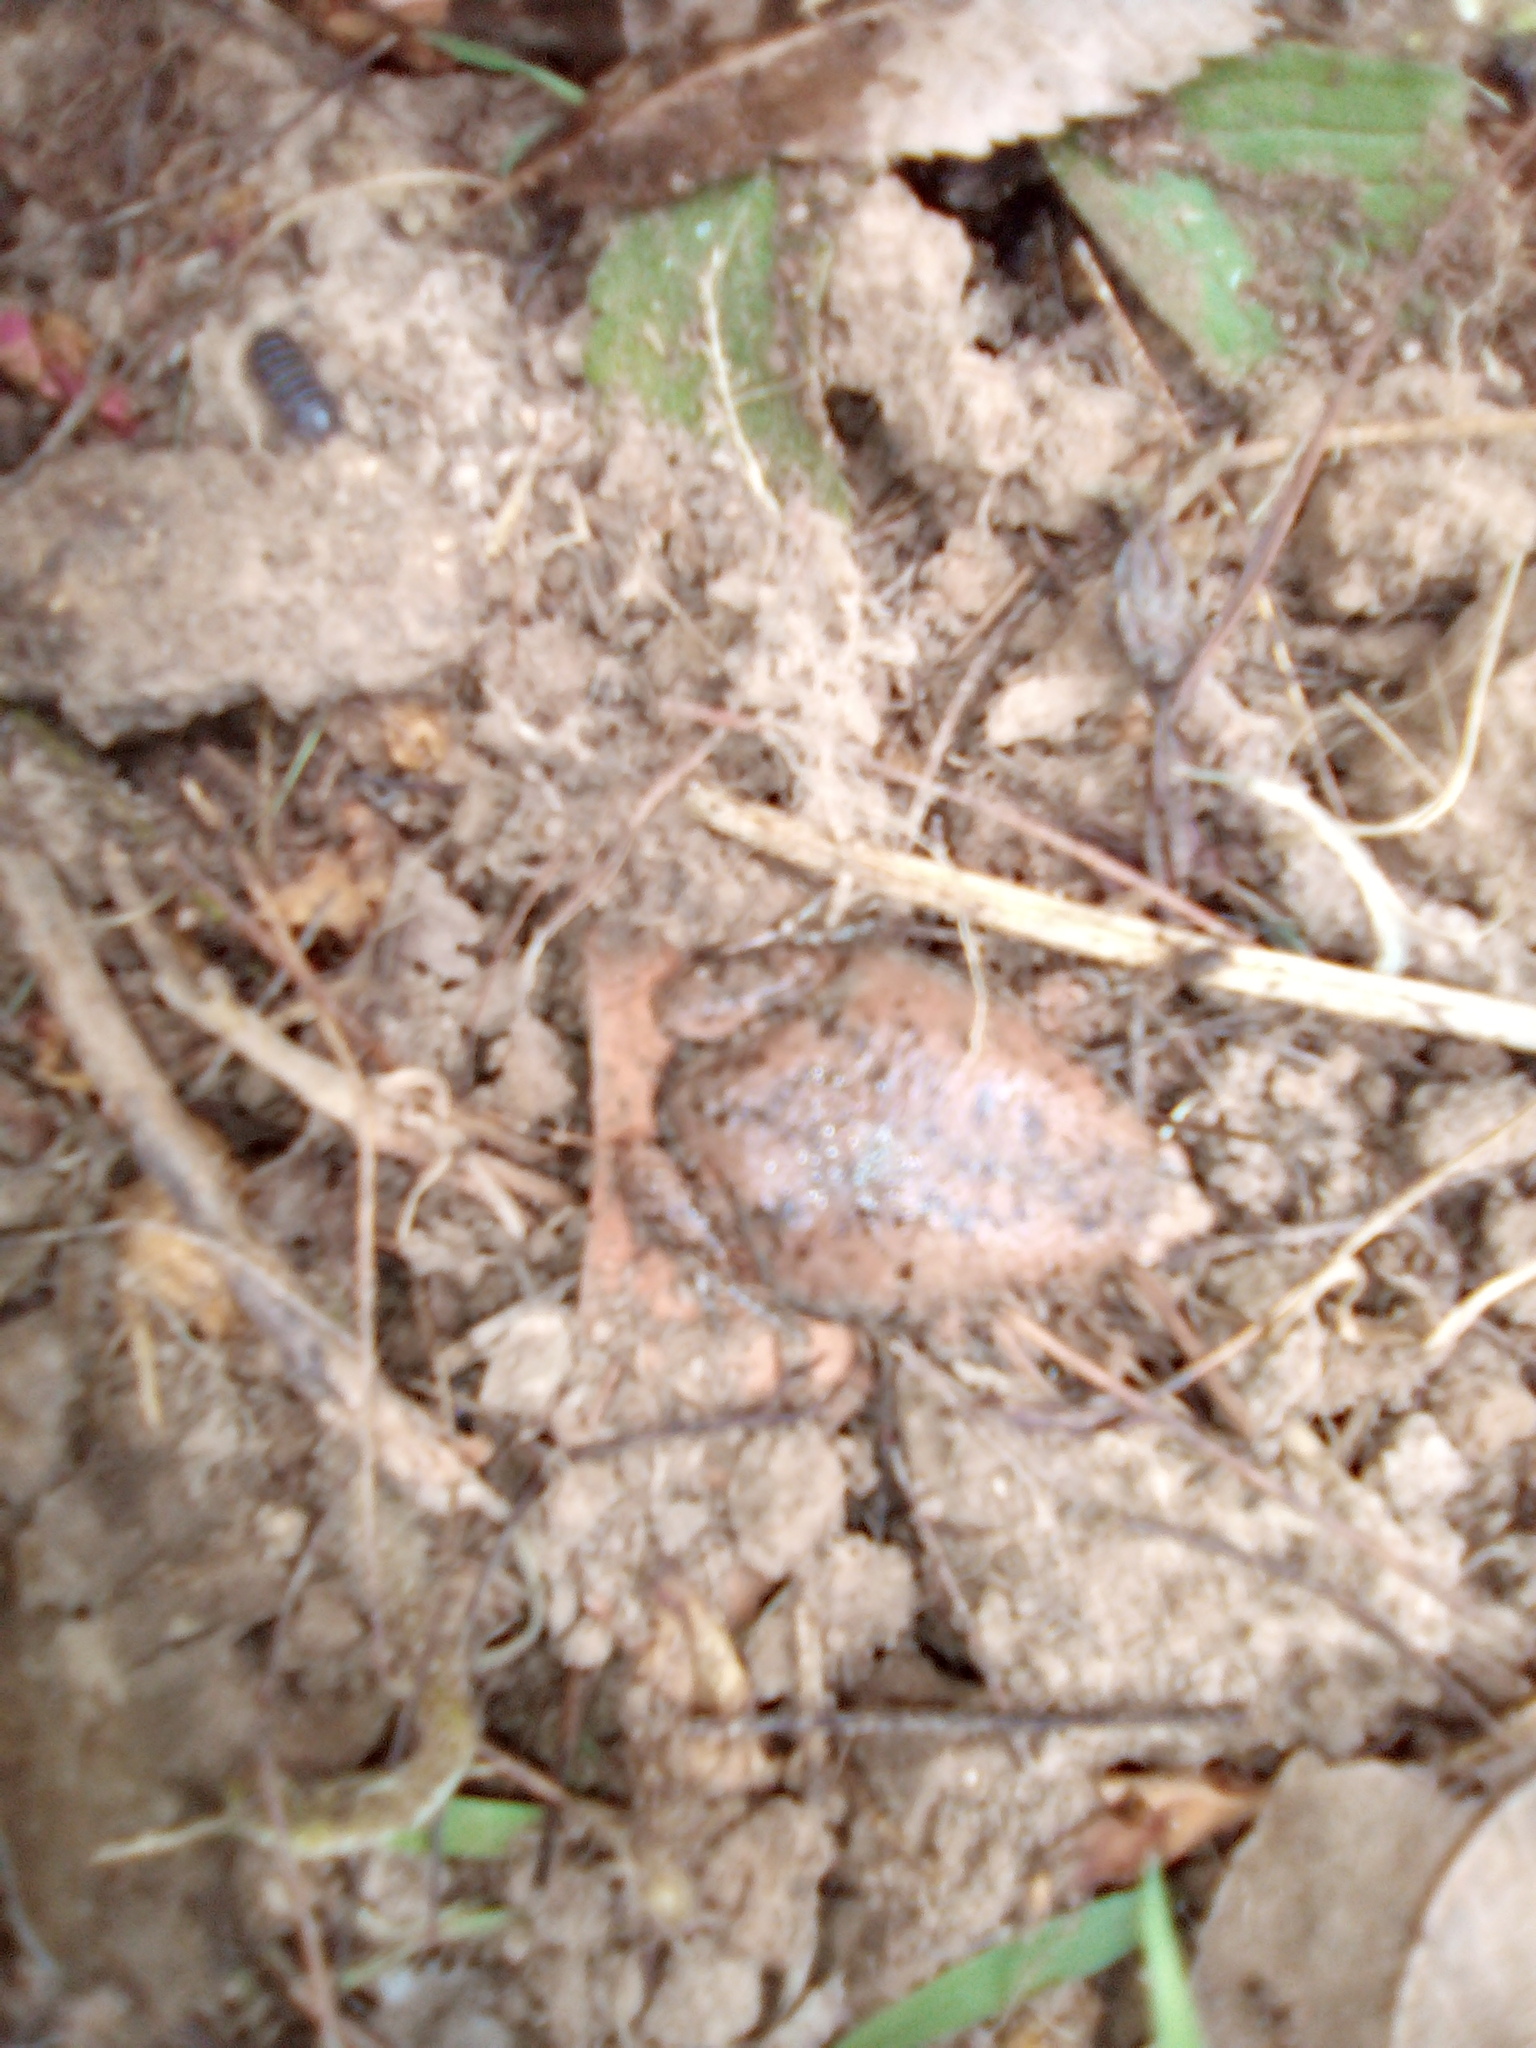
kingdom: Animalia
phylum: Chordata
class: Amphibia
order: Anura
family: Microhylidae
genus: Gastrophryne
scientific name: Gastrophryne carolinensis
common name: Eastern narrowmouth toad
